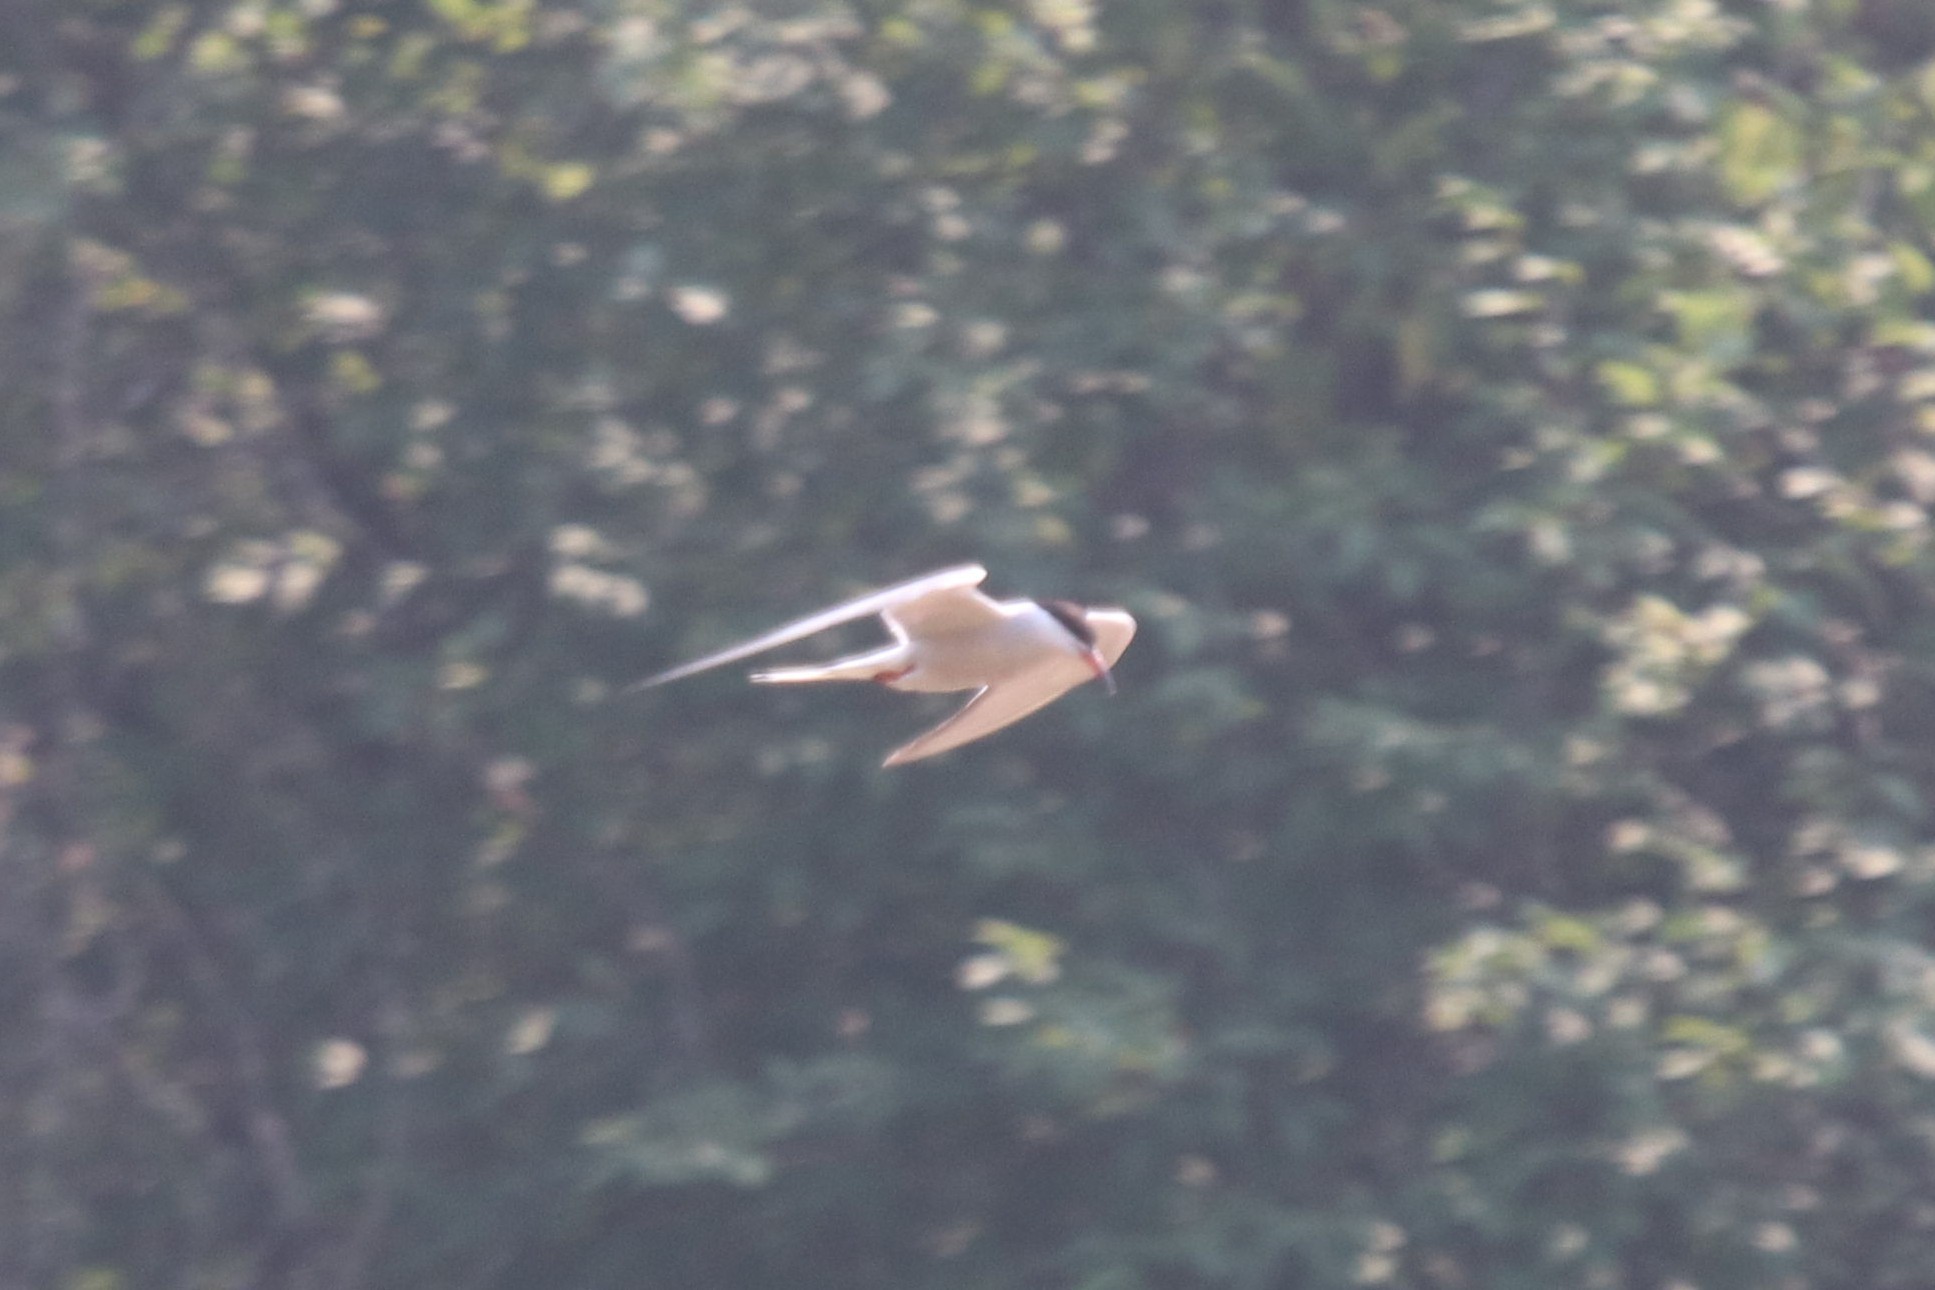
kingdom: Animalia
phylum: Chordata
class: Aves
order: Charadriiformes
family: Laridae
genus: Sterna
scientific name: Sterna hirundo
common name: Common tern
